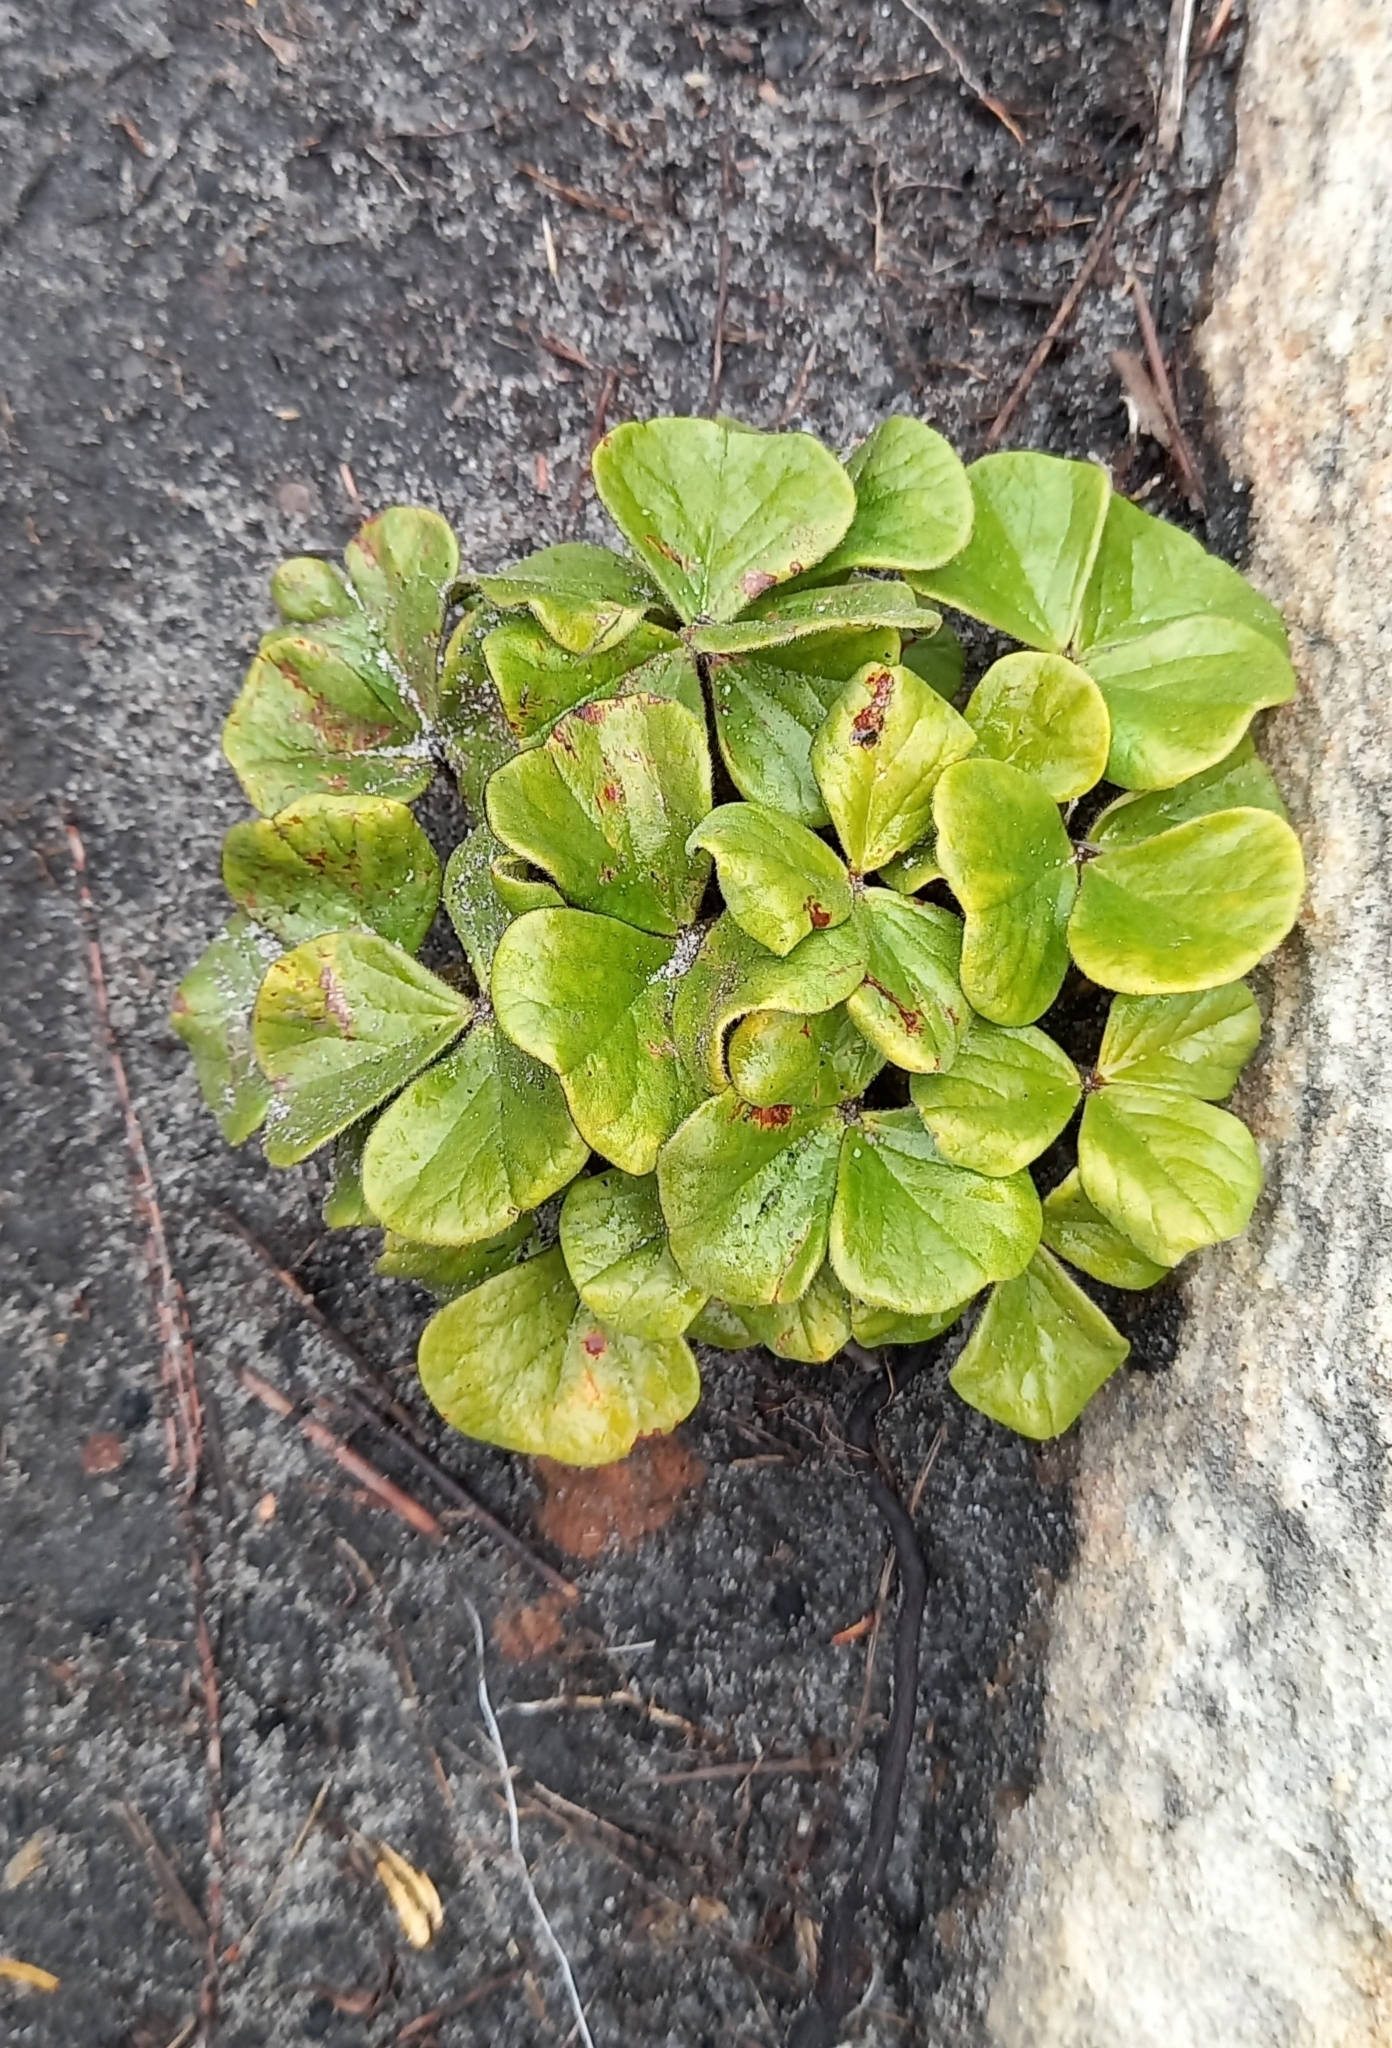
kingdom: Plantae
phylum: Tracheophyta
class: Magnoliopsida
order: Oxalidales
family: Oxalidaceae
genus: Oxalis
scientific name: Oxalis truncatula
